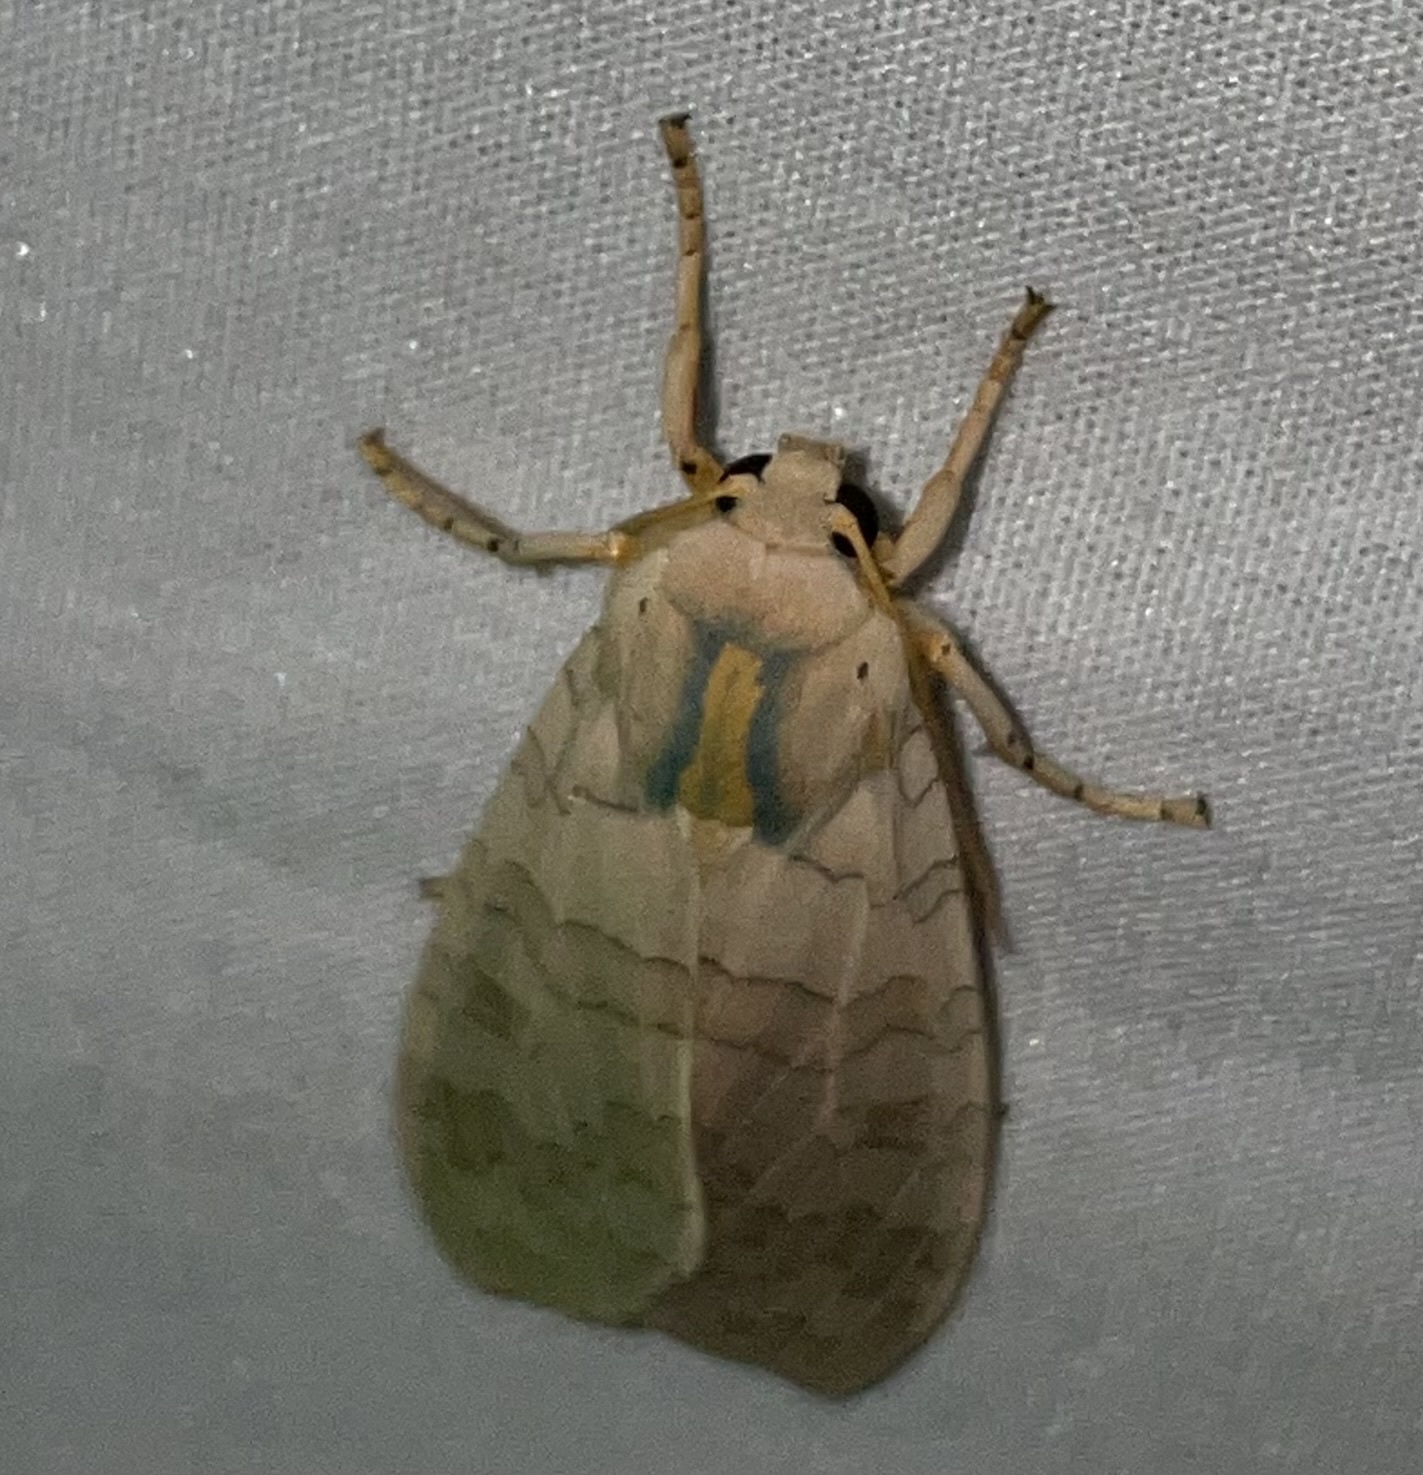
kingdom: Animalia
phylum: Arthropoda
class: Insecta
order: Lepidoptera
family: Erebidae
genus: Halysidota
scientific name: Halysidota
